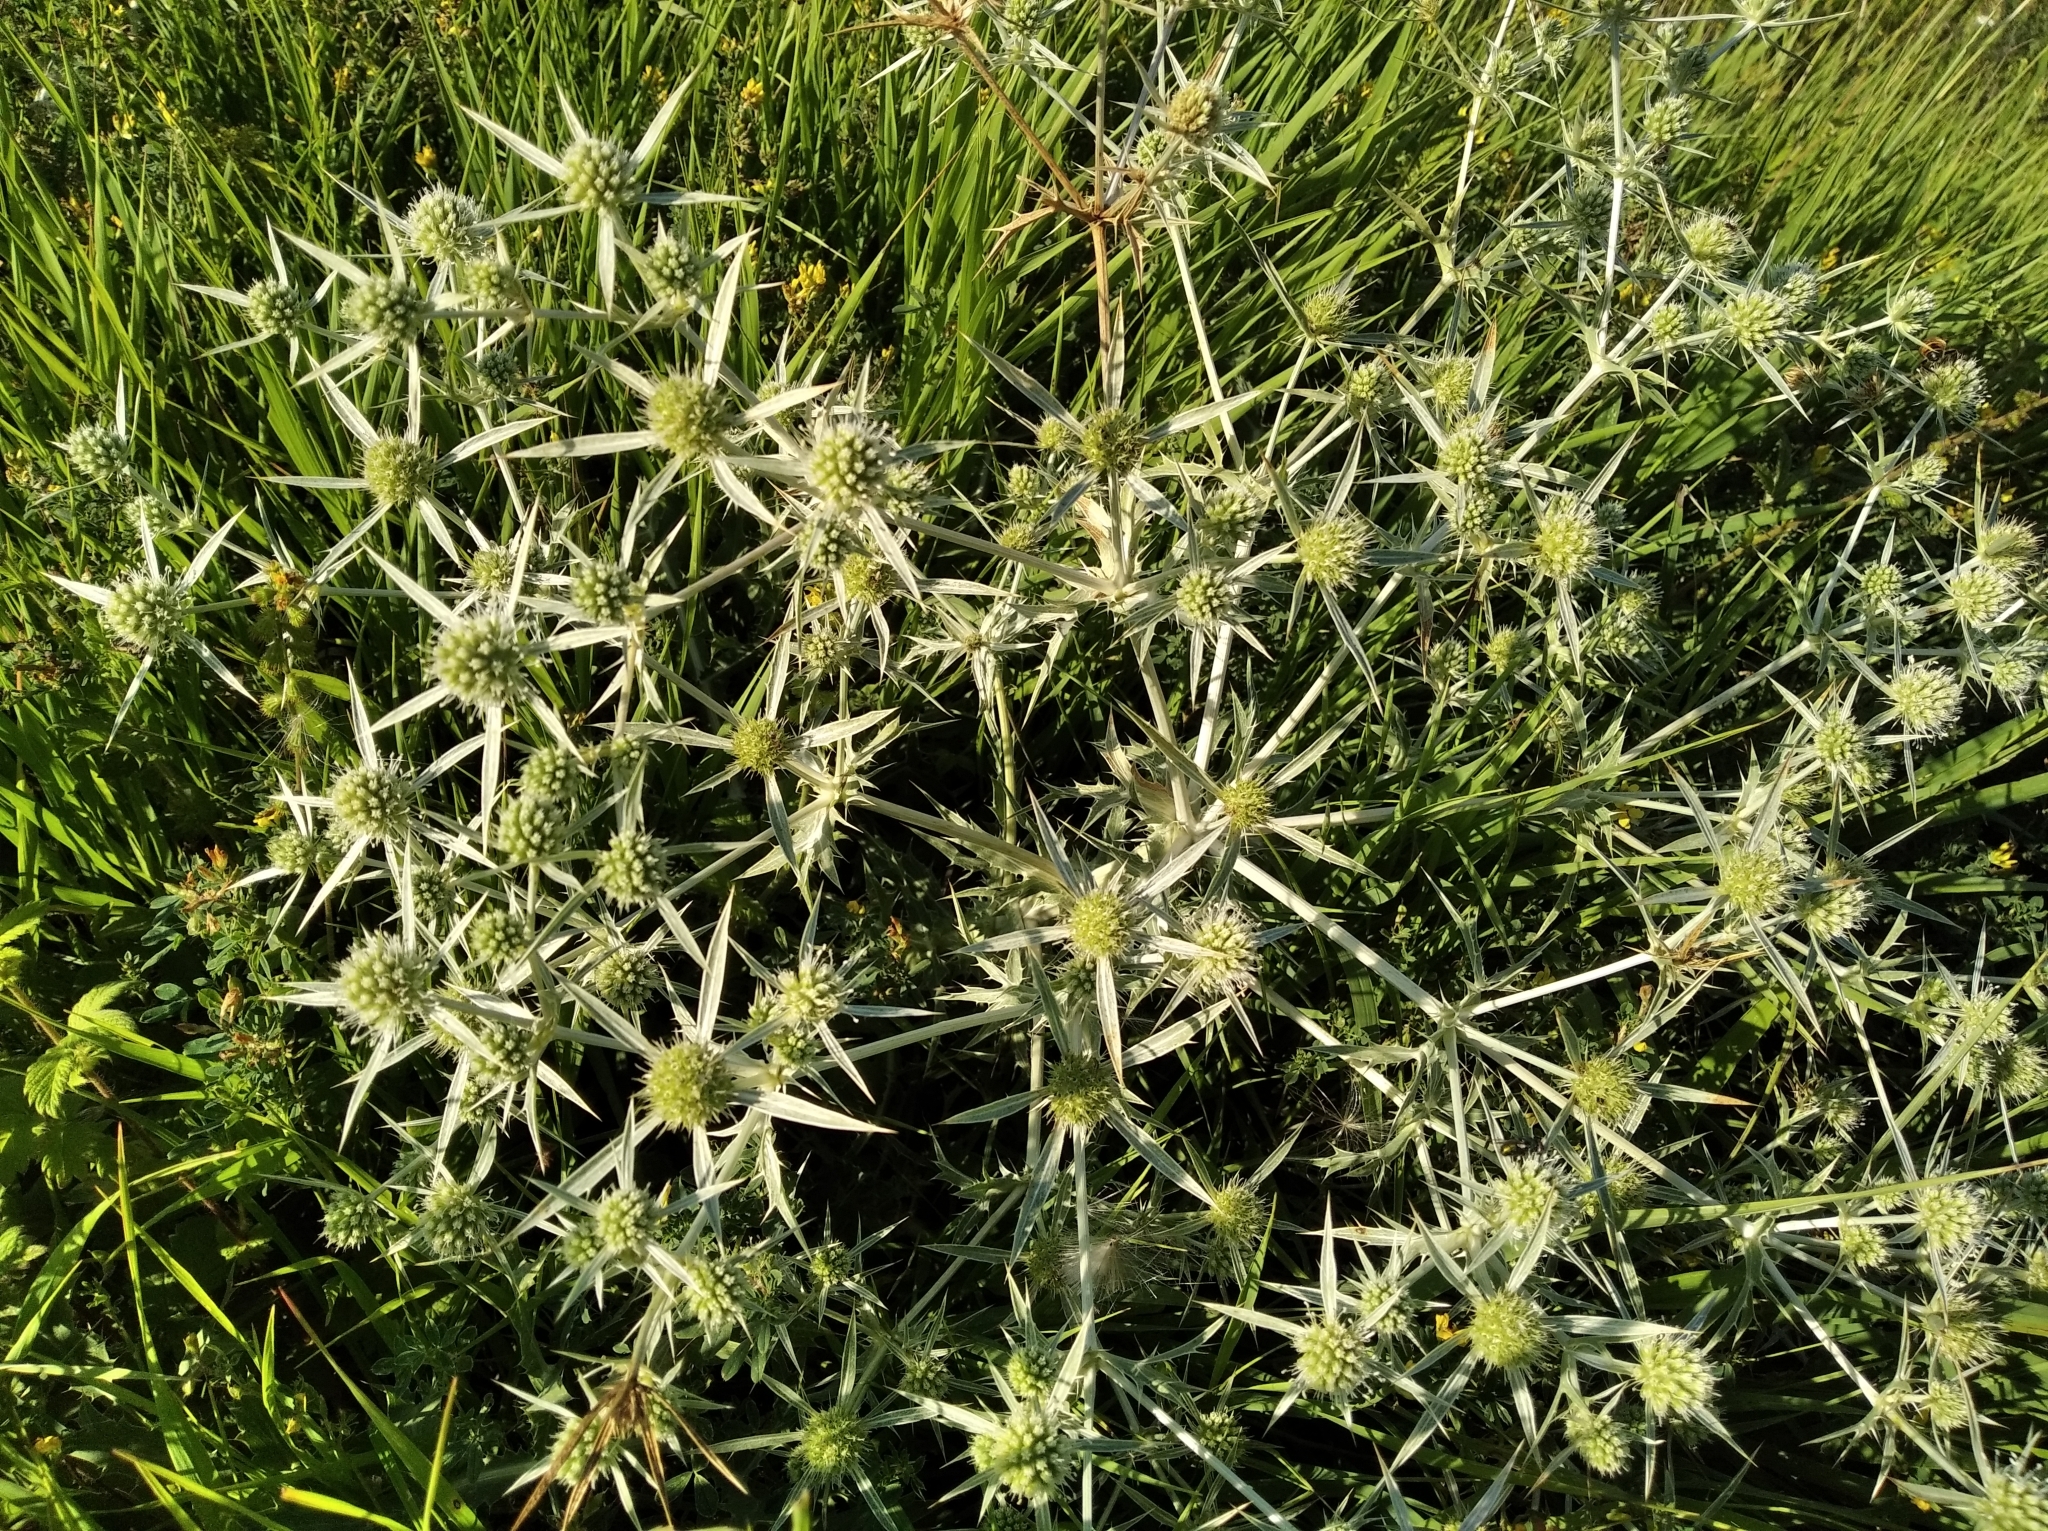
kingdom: Plantae
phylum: Tracheophyta
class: Magnoliopsida
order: Apiales
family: Apiaceae
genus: Eryngium
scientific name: Eryngium campestre
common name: Field eryngo
